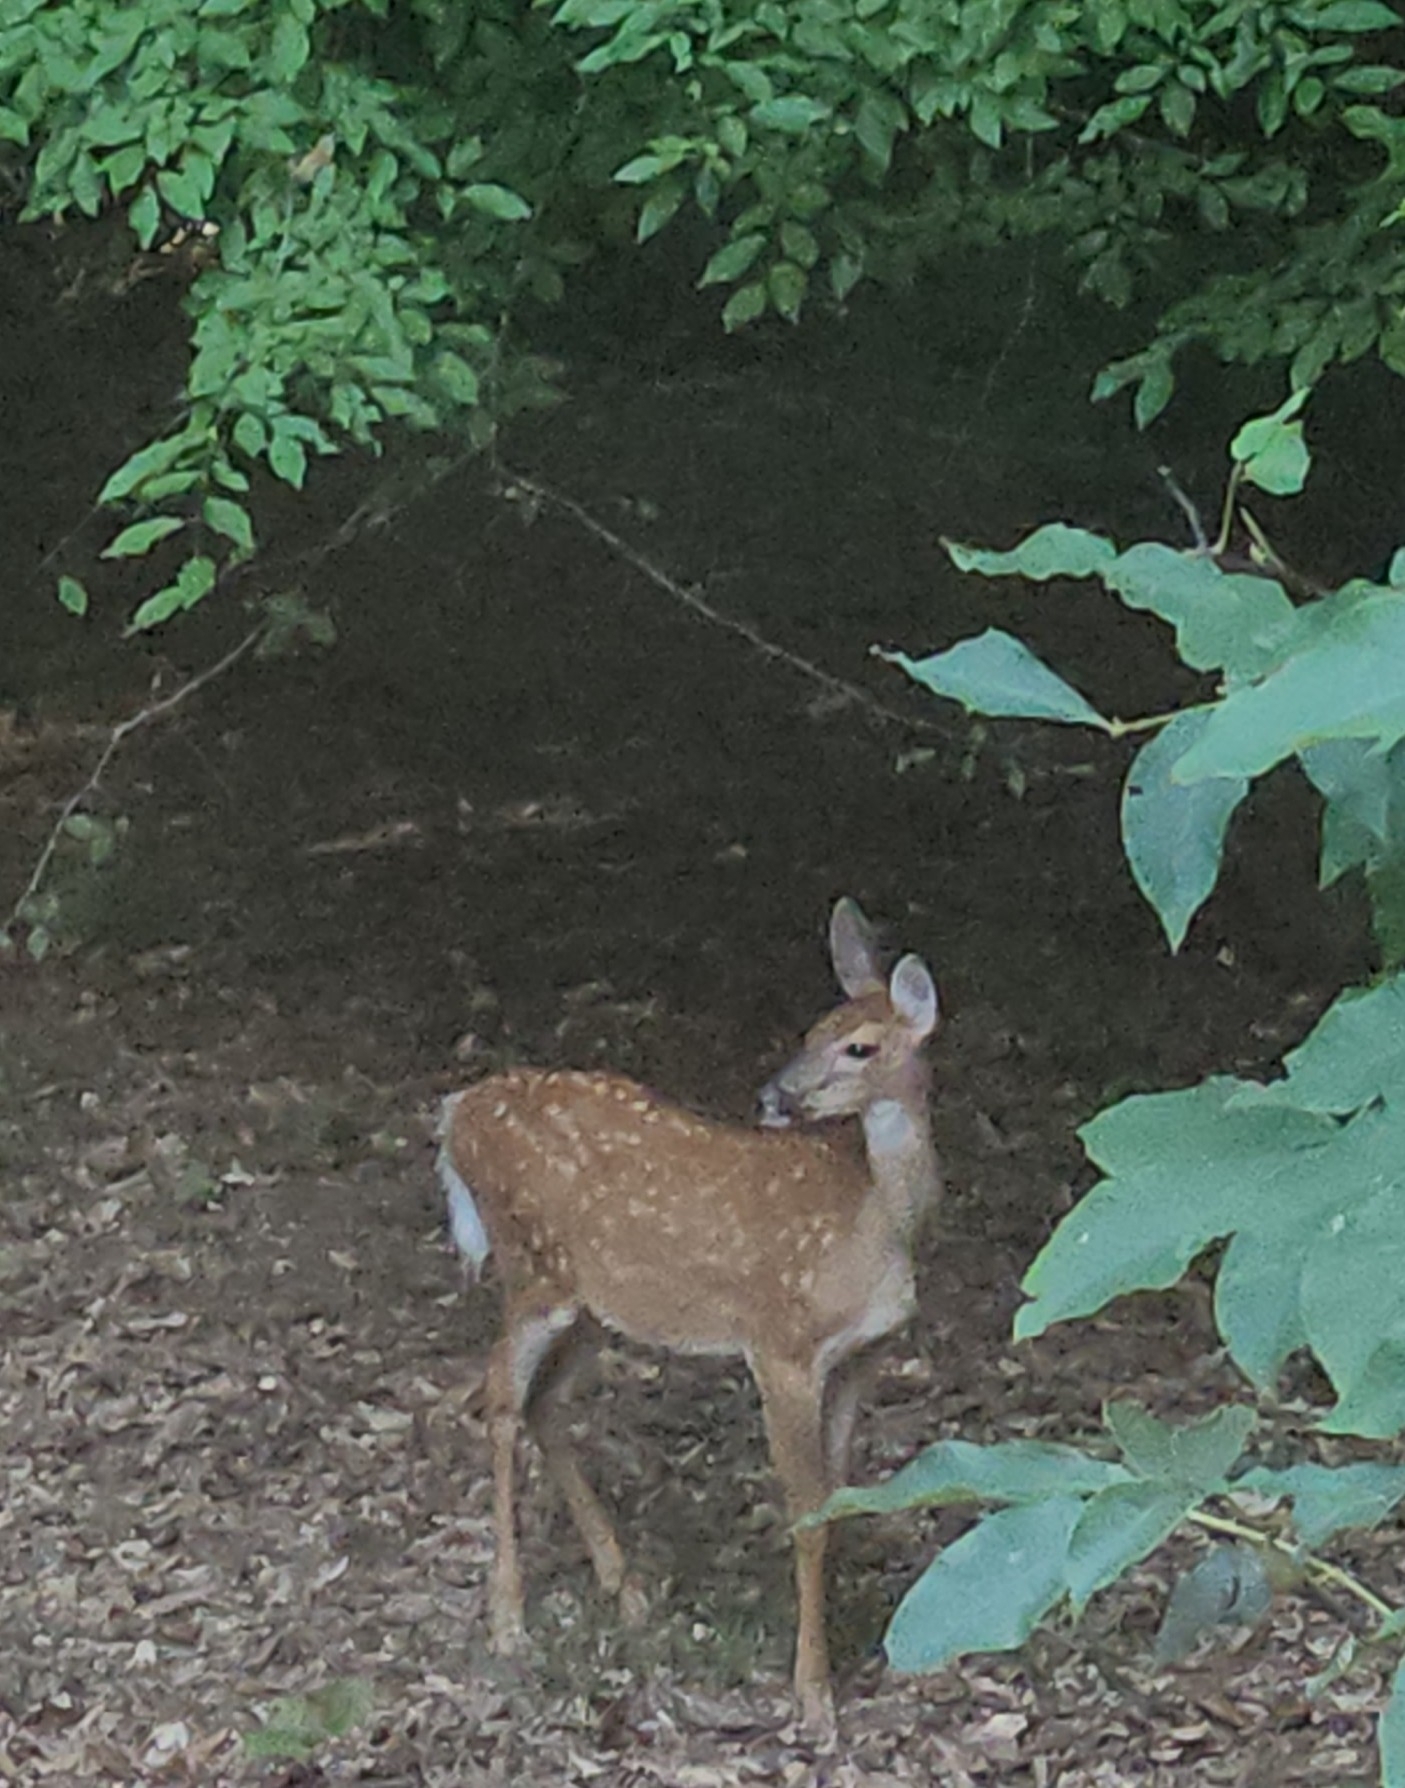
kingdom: Animalia
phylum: Chordata
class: Mammalia
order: Artiodactyla
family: Cervidae
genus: Odocoileus
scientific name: Odocoileus virginianus
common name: White-tailed deer
